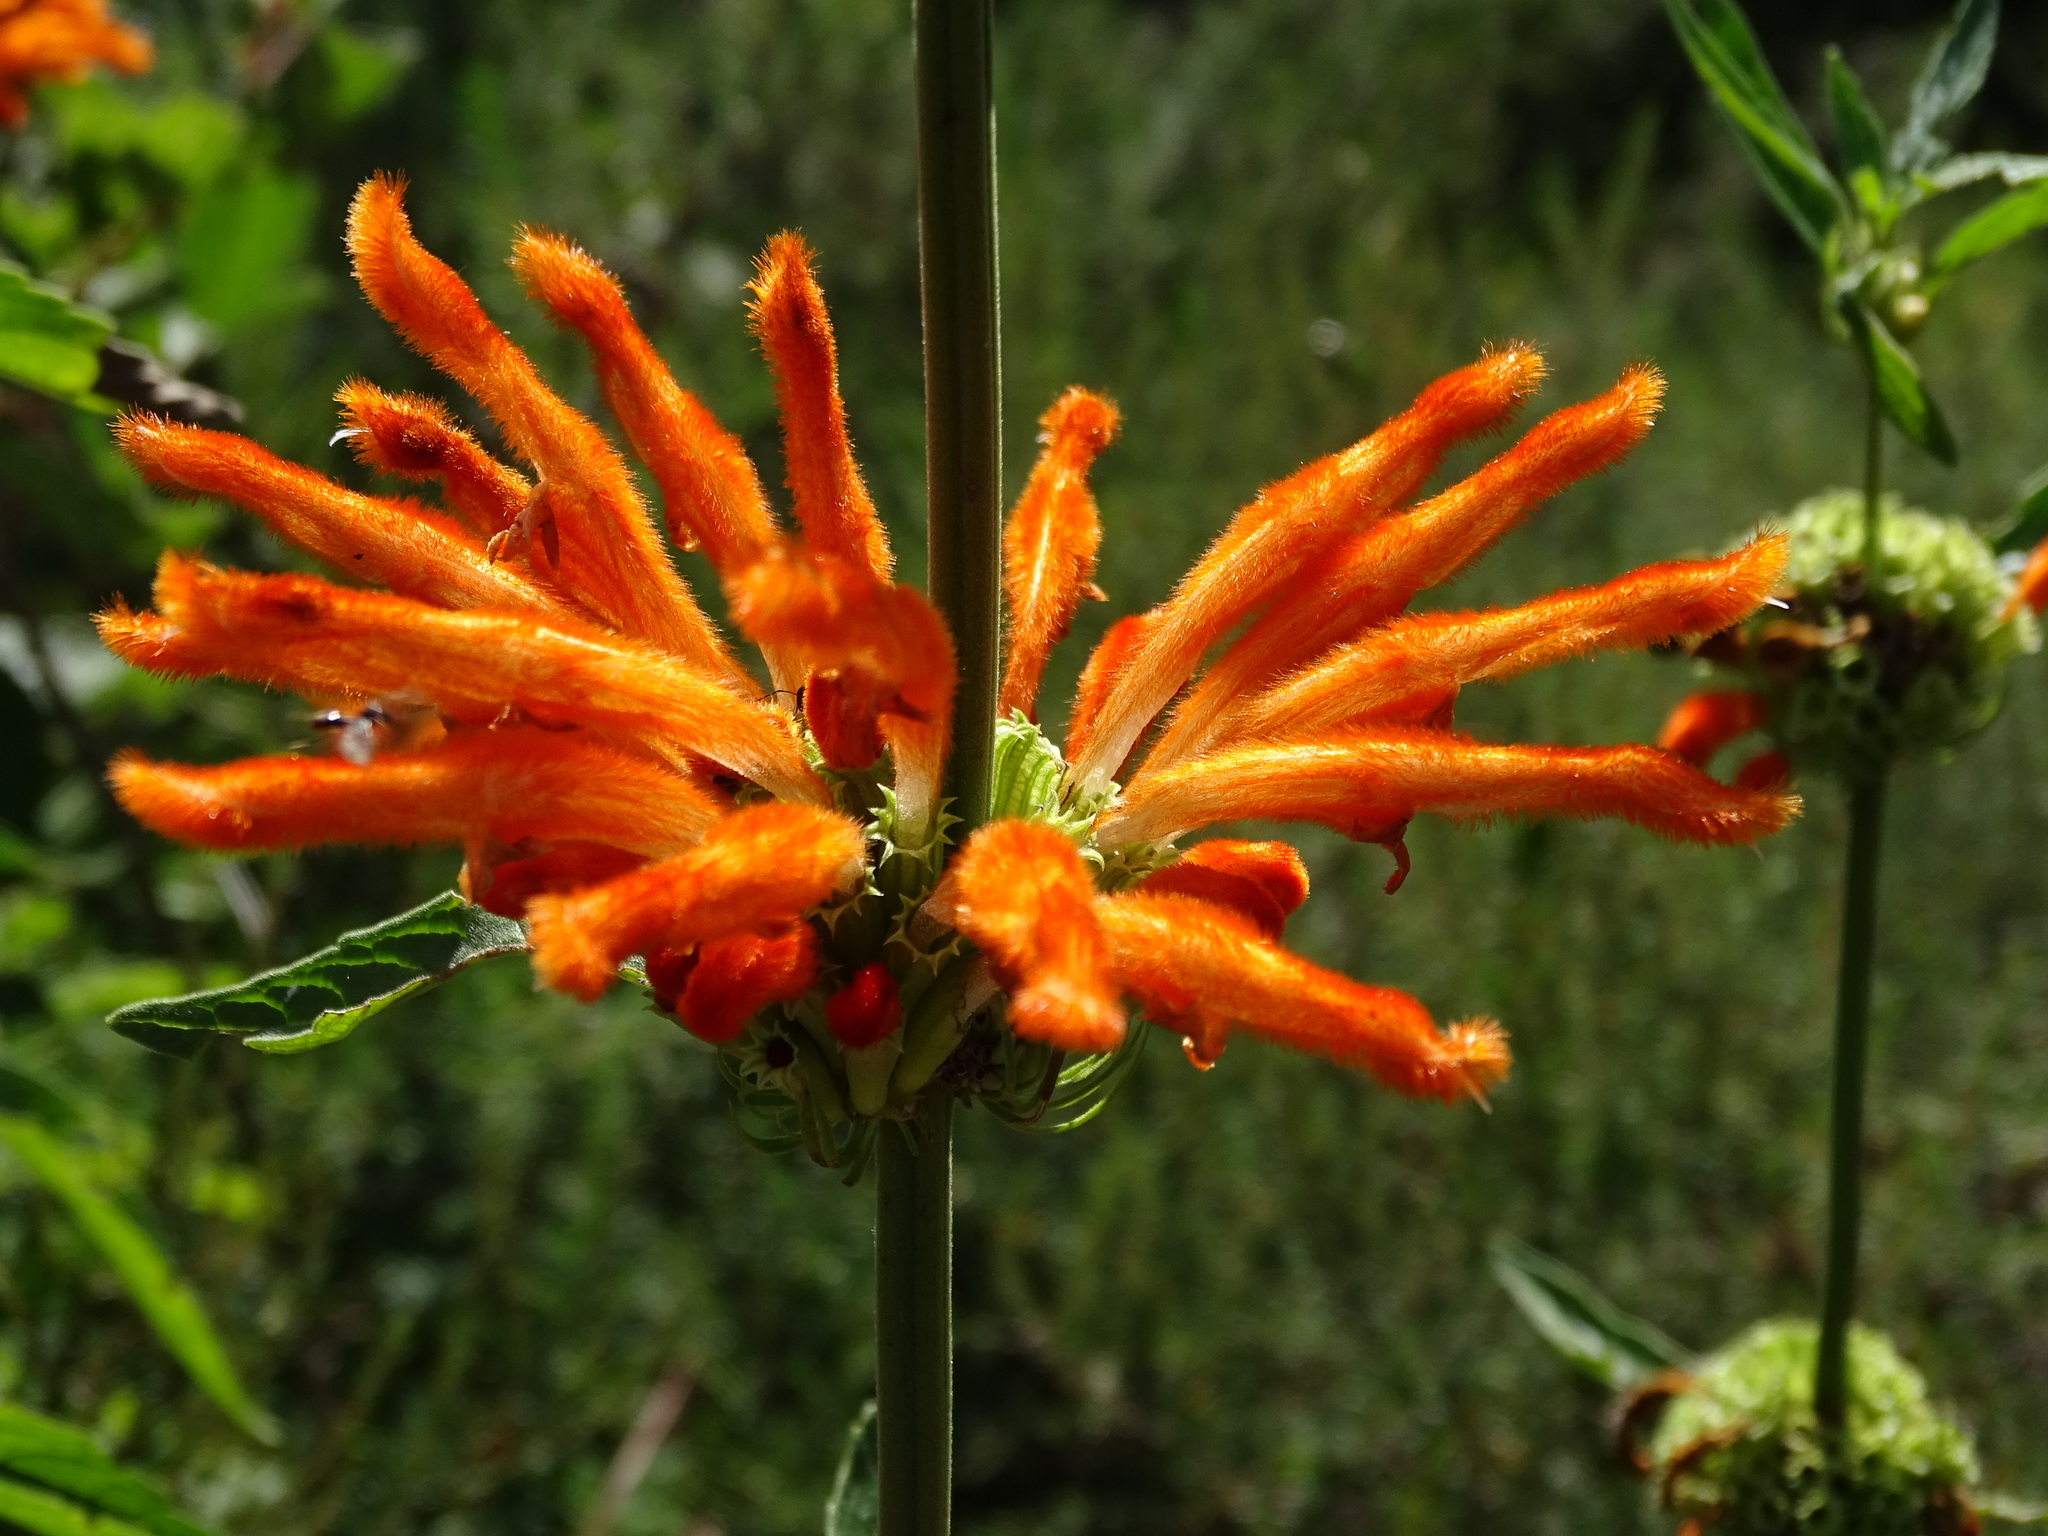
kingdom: Plantae
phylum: Tracheophyta
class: Magnoliopsida
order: Lamiales
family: Lamiaceae
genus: Leonotis
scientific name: Leonotis leonurus
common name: Lion's ear
